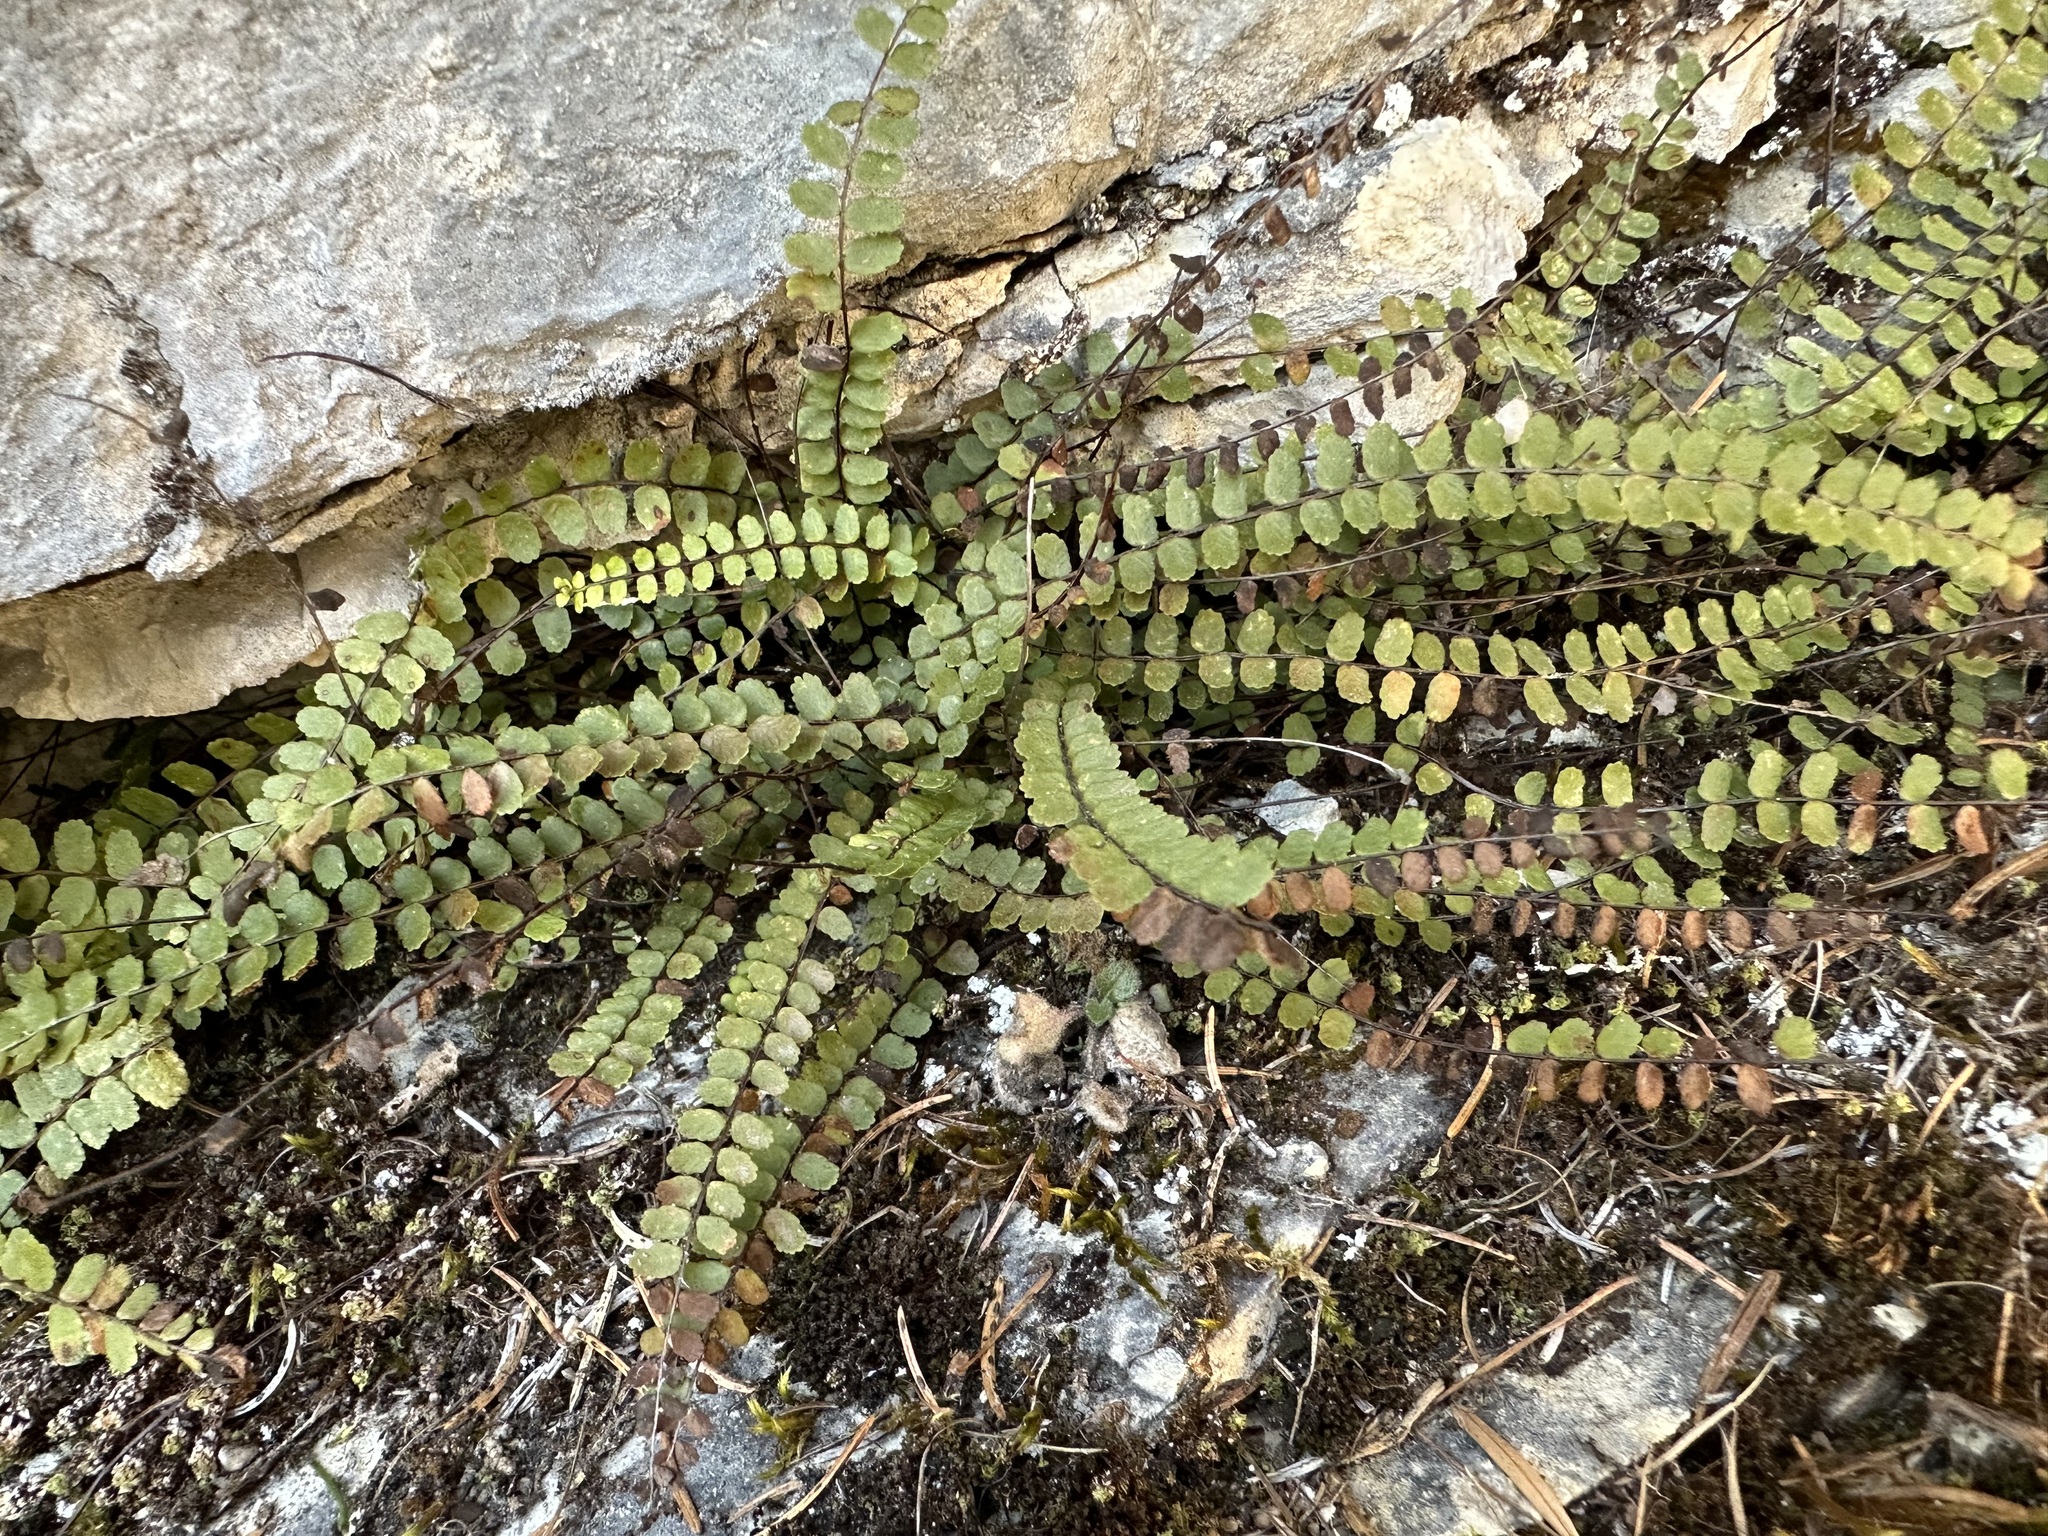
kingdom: Plantae
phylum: Tracheophyta
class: Polypodiopsida
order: Polypodiales
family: Aspleniaceae
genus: Asplenium
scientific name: Asplenium trichomanes
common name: Maidenhair spleenwort
